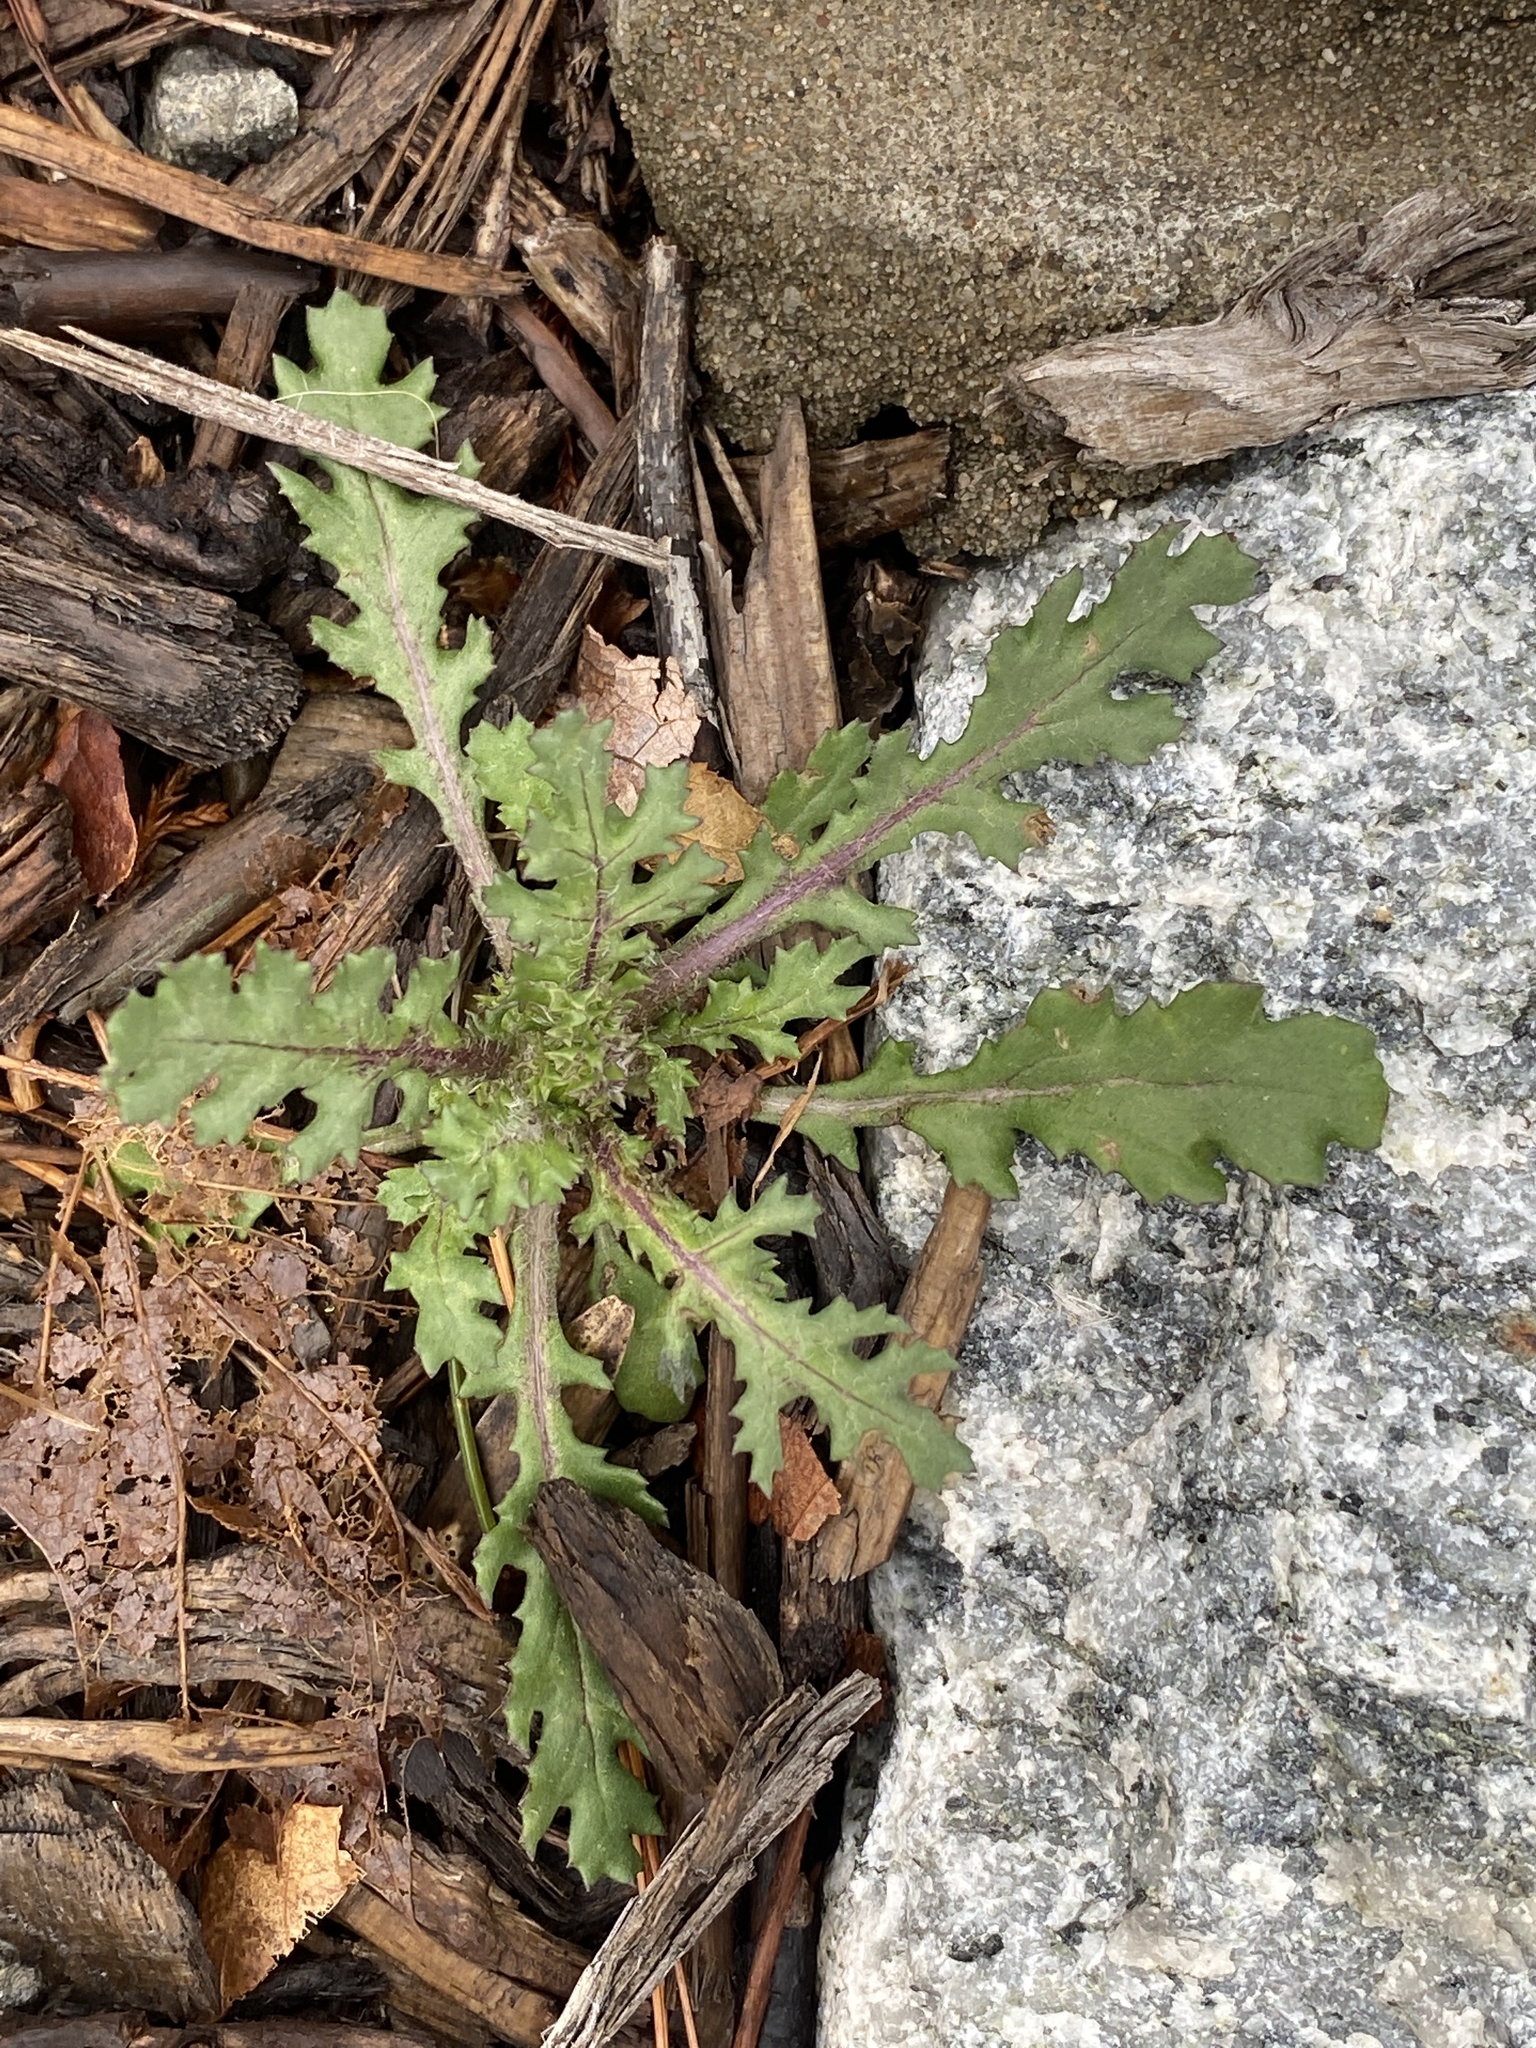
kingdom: Plantae
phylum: Tracheophyta
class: Magnoliopsida
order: Asterales
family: Asteraceae
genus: Senecio
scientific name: Senecio vulgaris
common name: Old-man-in-the-spring
